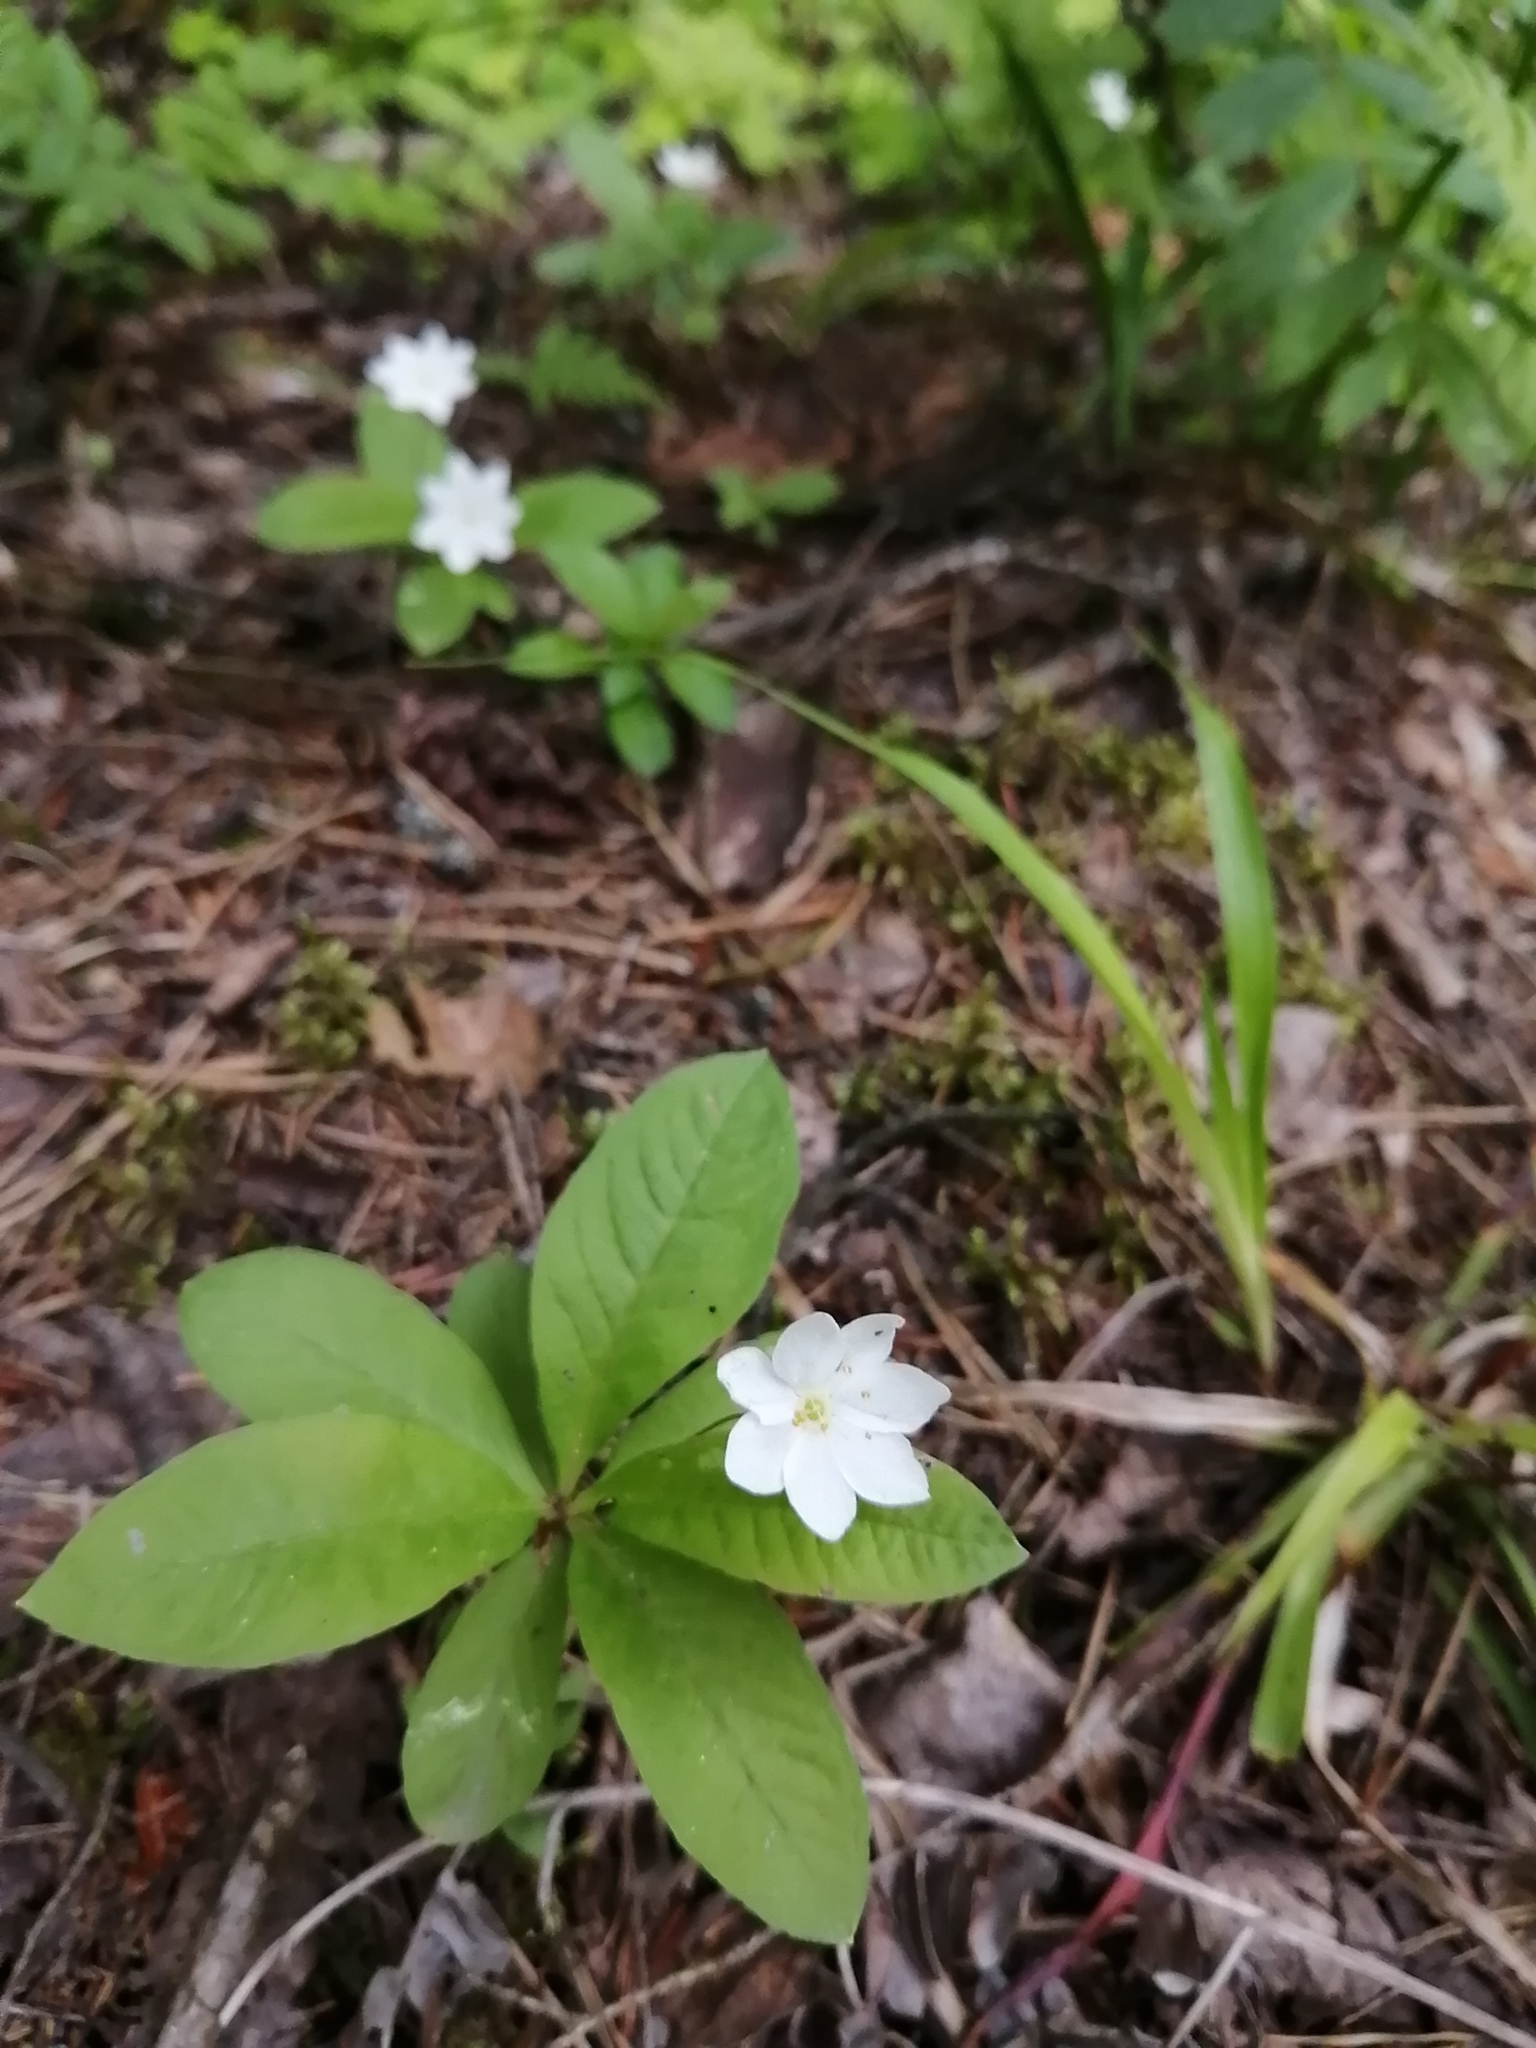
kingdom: Plantae
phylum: Tracheophyta
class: Magnoliopsida
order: Ericales
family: Primulaceae
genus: Lysimachia
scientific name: Lysimachia europaea
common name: Arctic starflower
